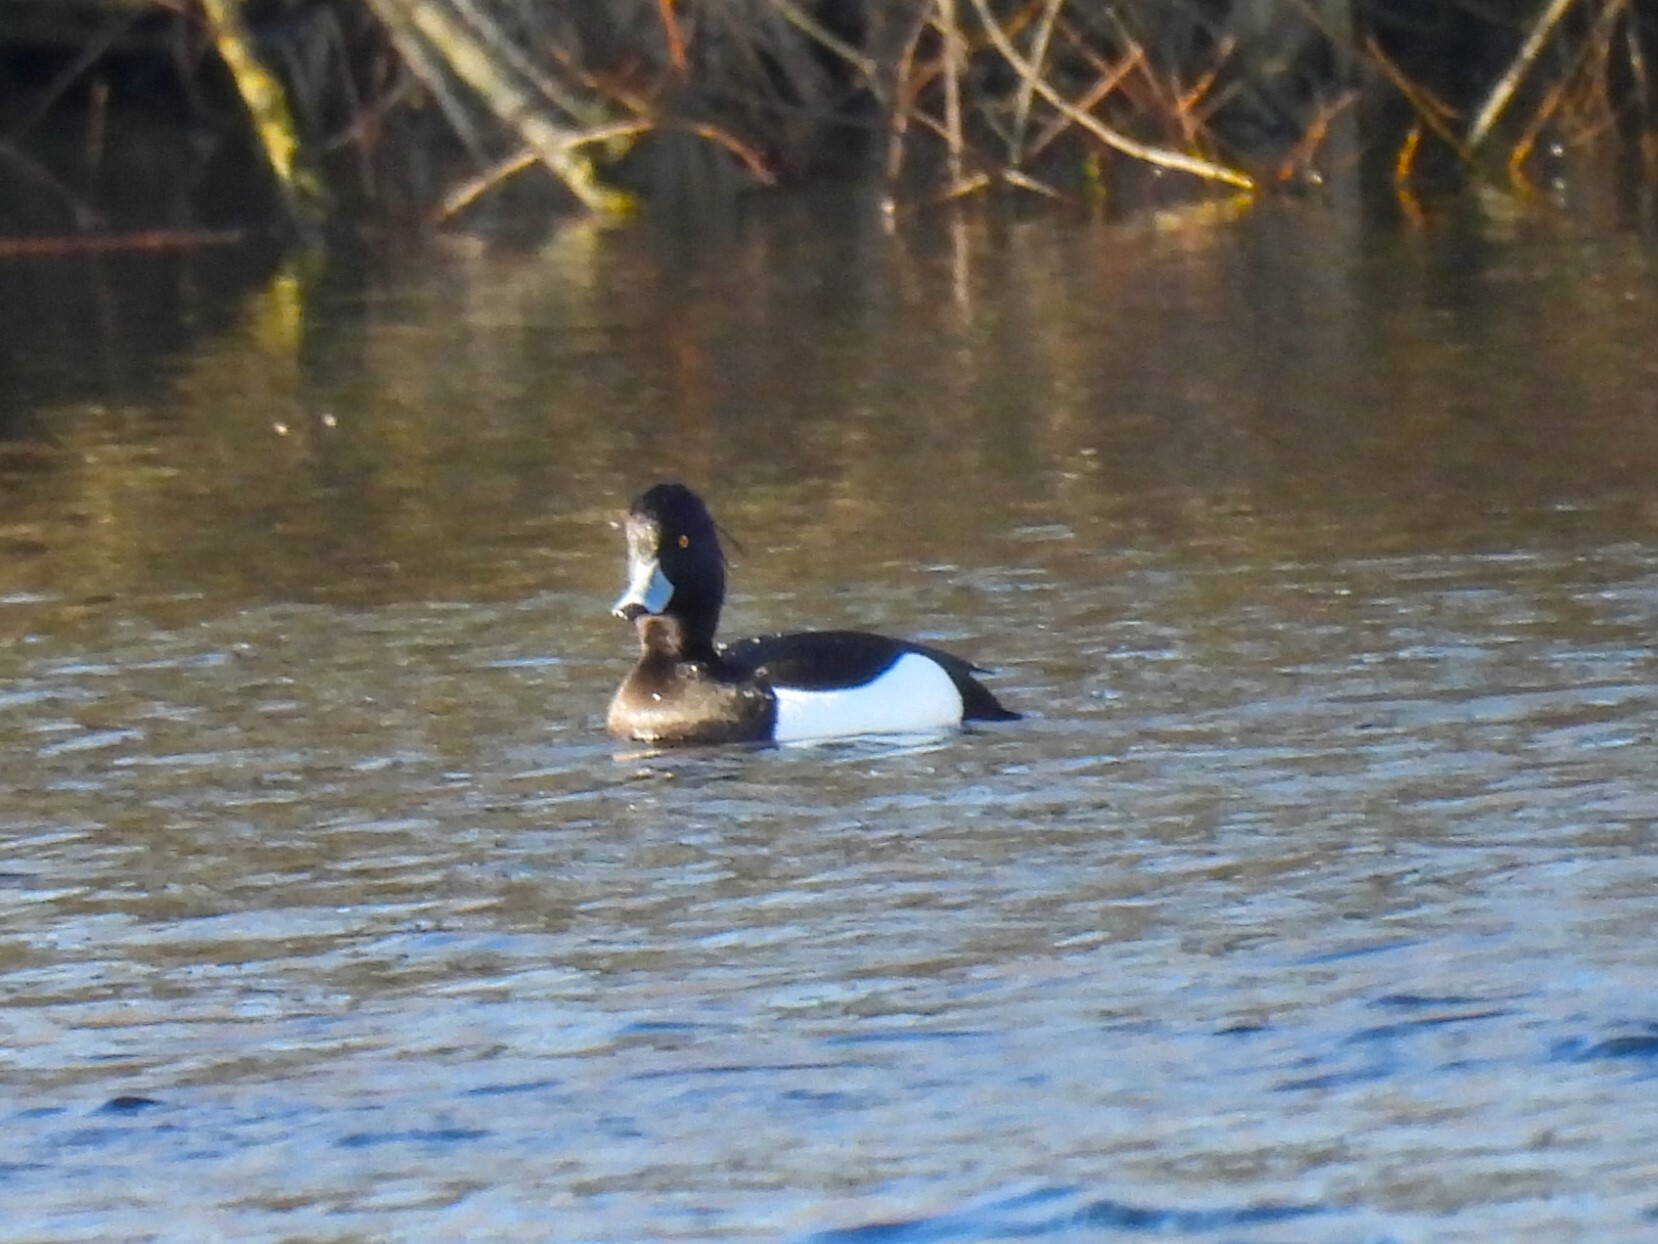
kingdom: Animalia
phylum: Chordata
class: Aves
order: Anseriformes
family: Anatidae
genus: Aythya
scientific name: Aythya fuligula
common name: Tufted duck
